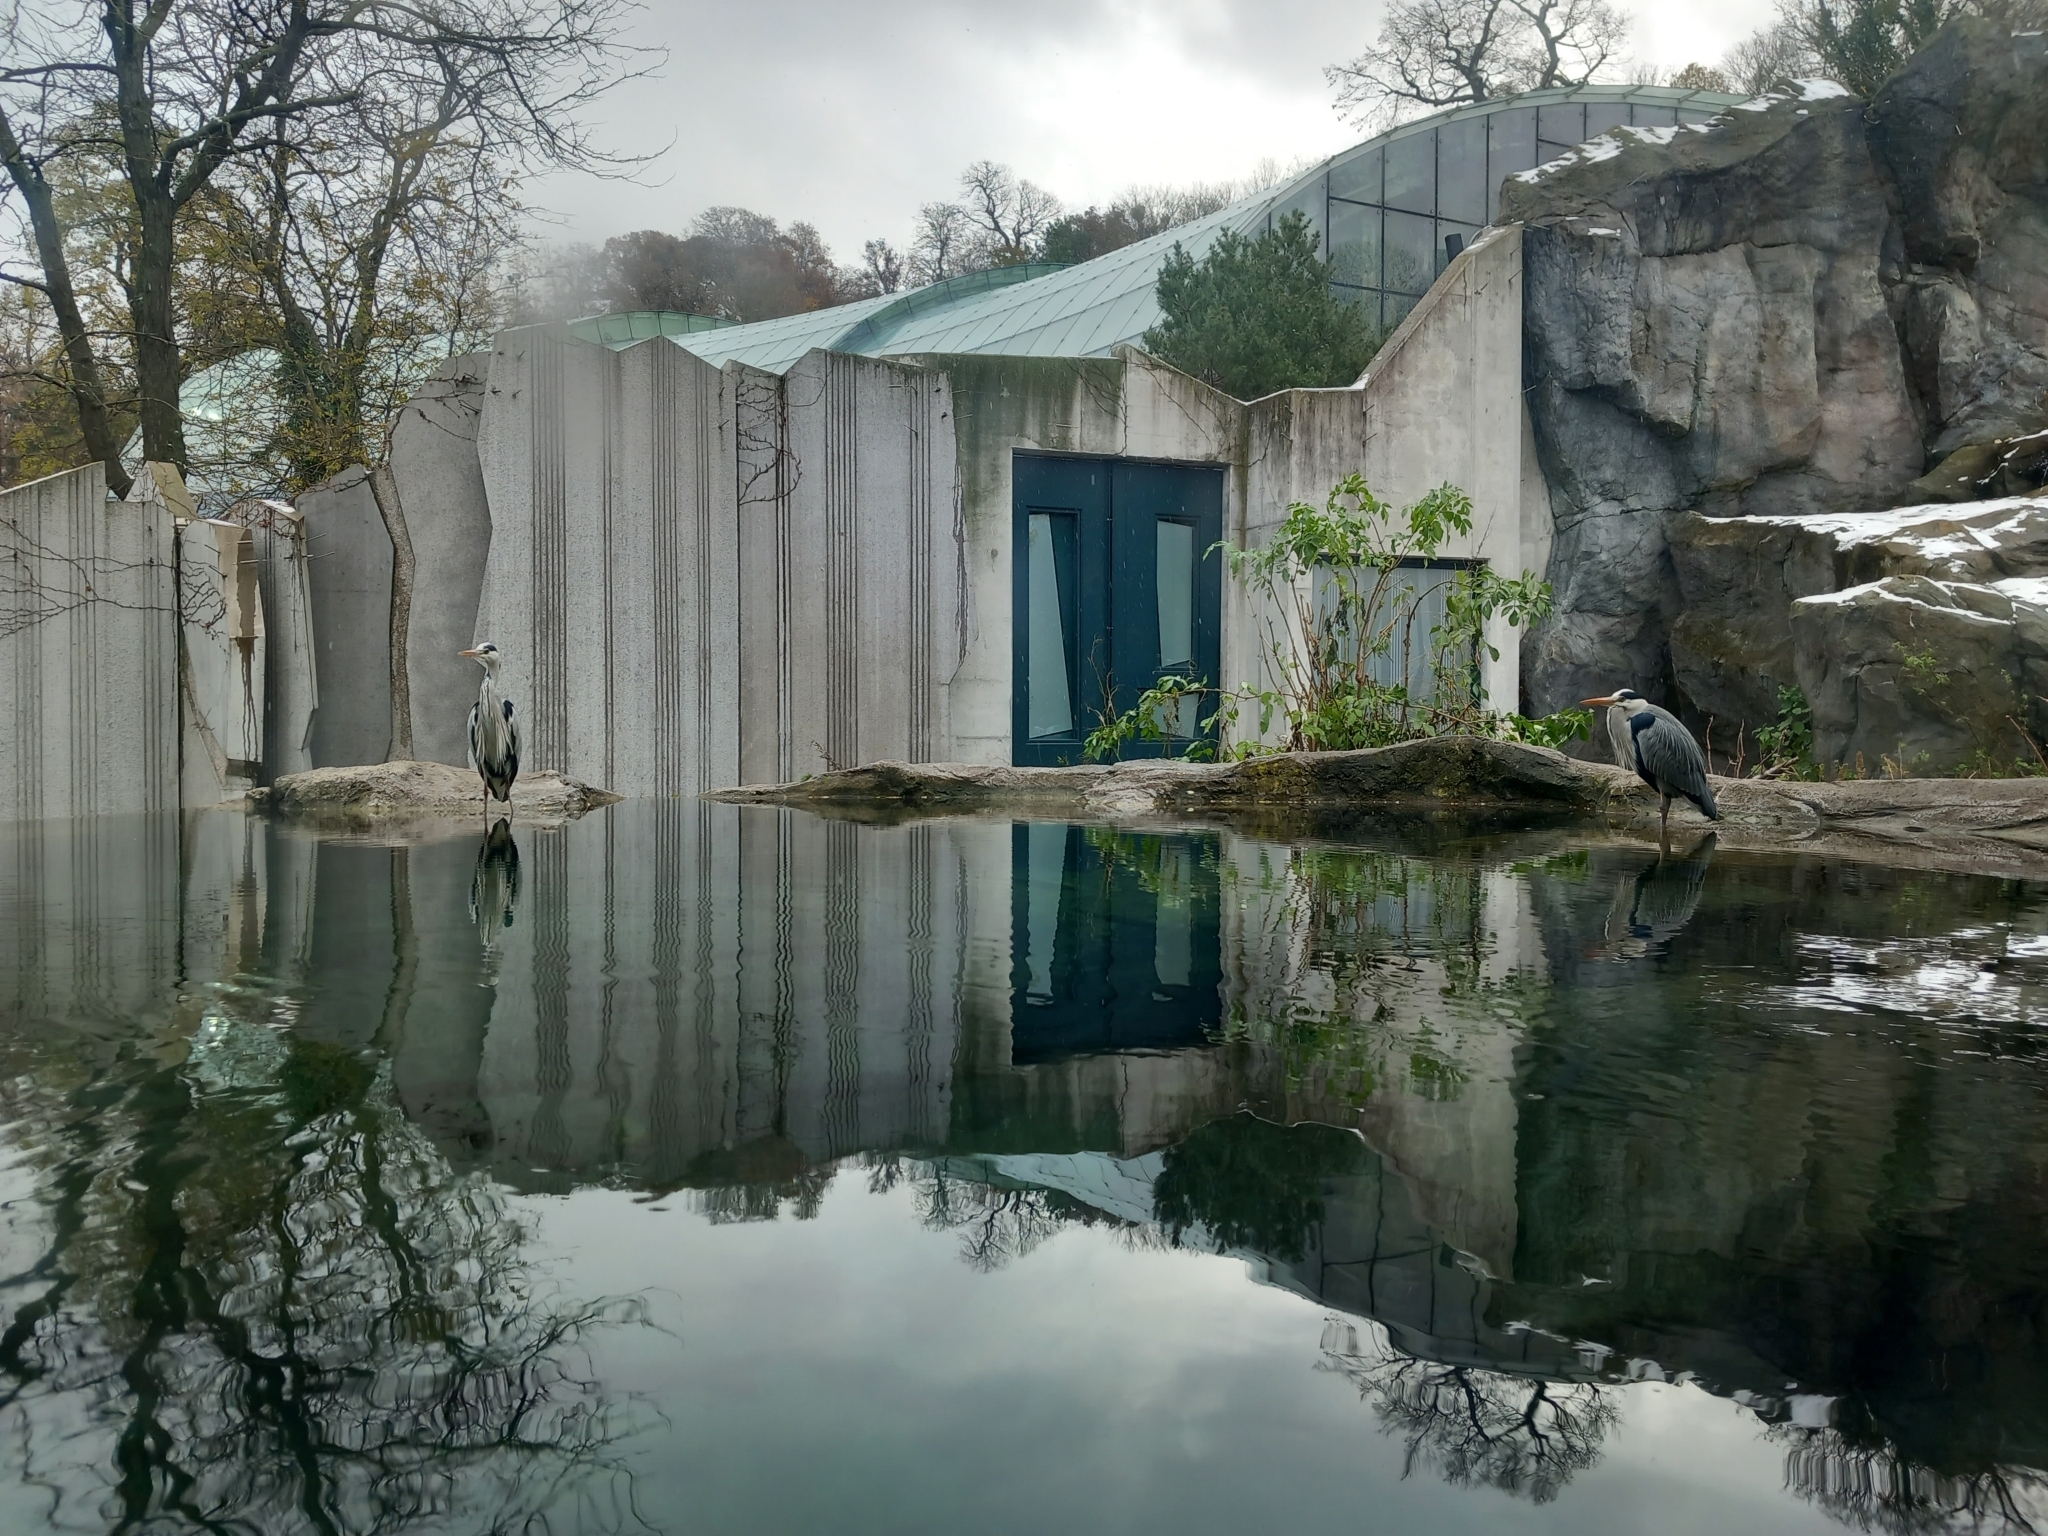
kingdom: Animalia
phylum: Chordata
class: Aves
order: Pelecaniformes
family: Ardeidae
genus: Ardea
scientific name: Ardea cinerea
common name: Grey heron
